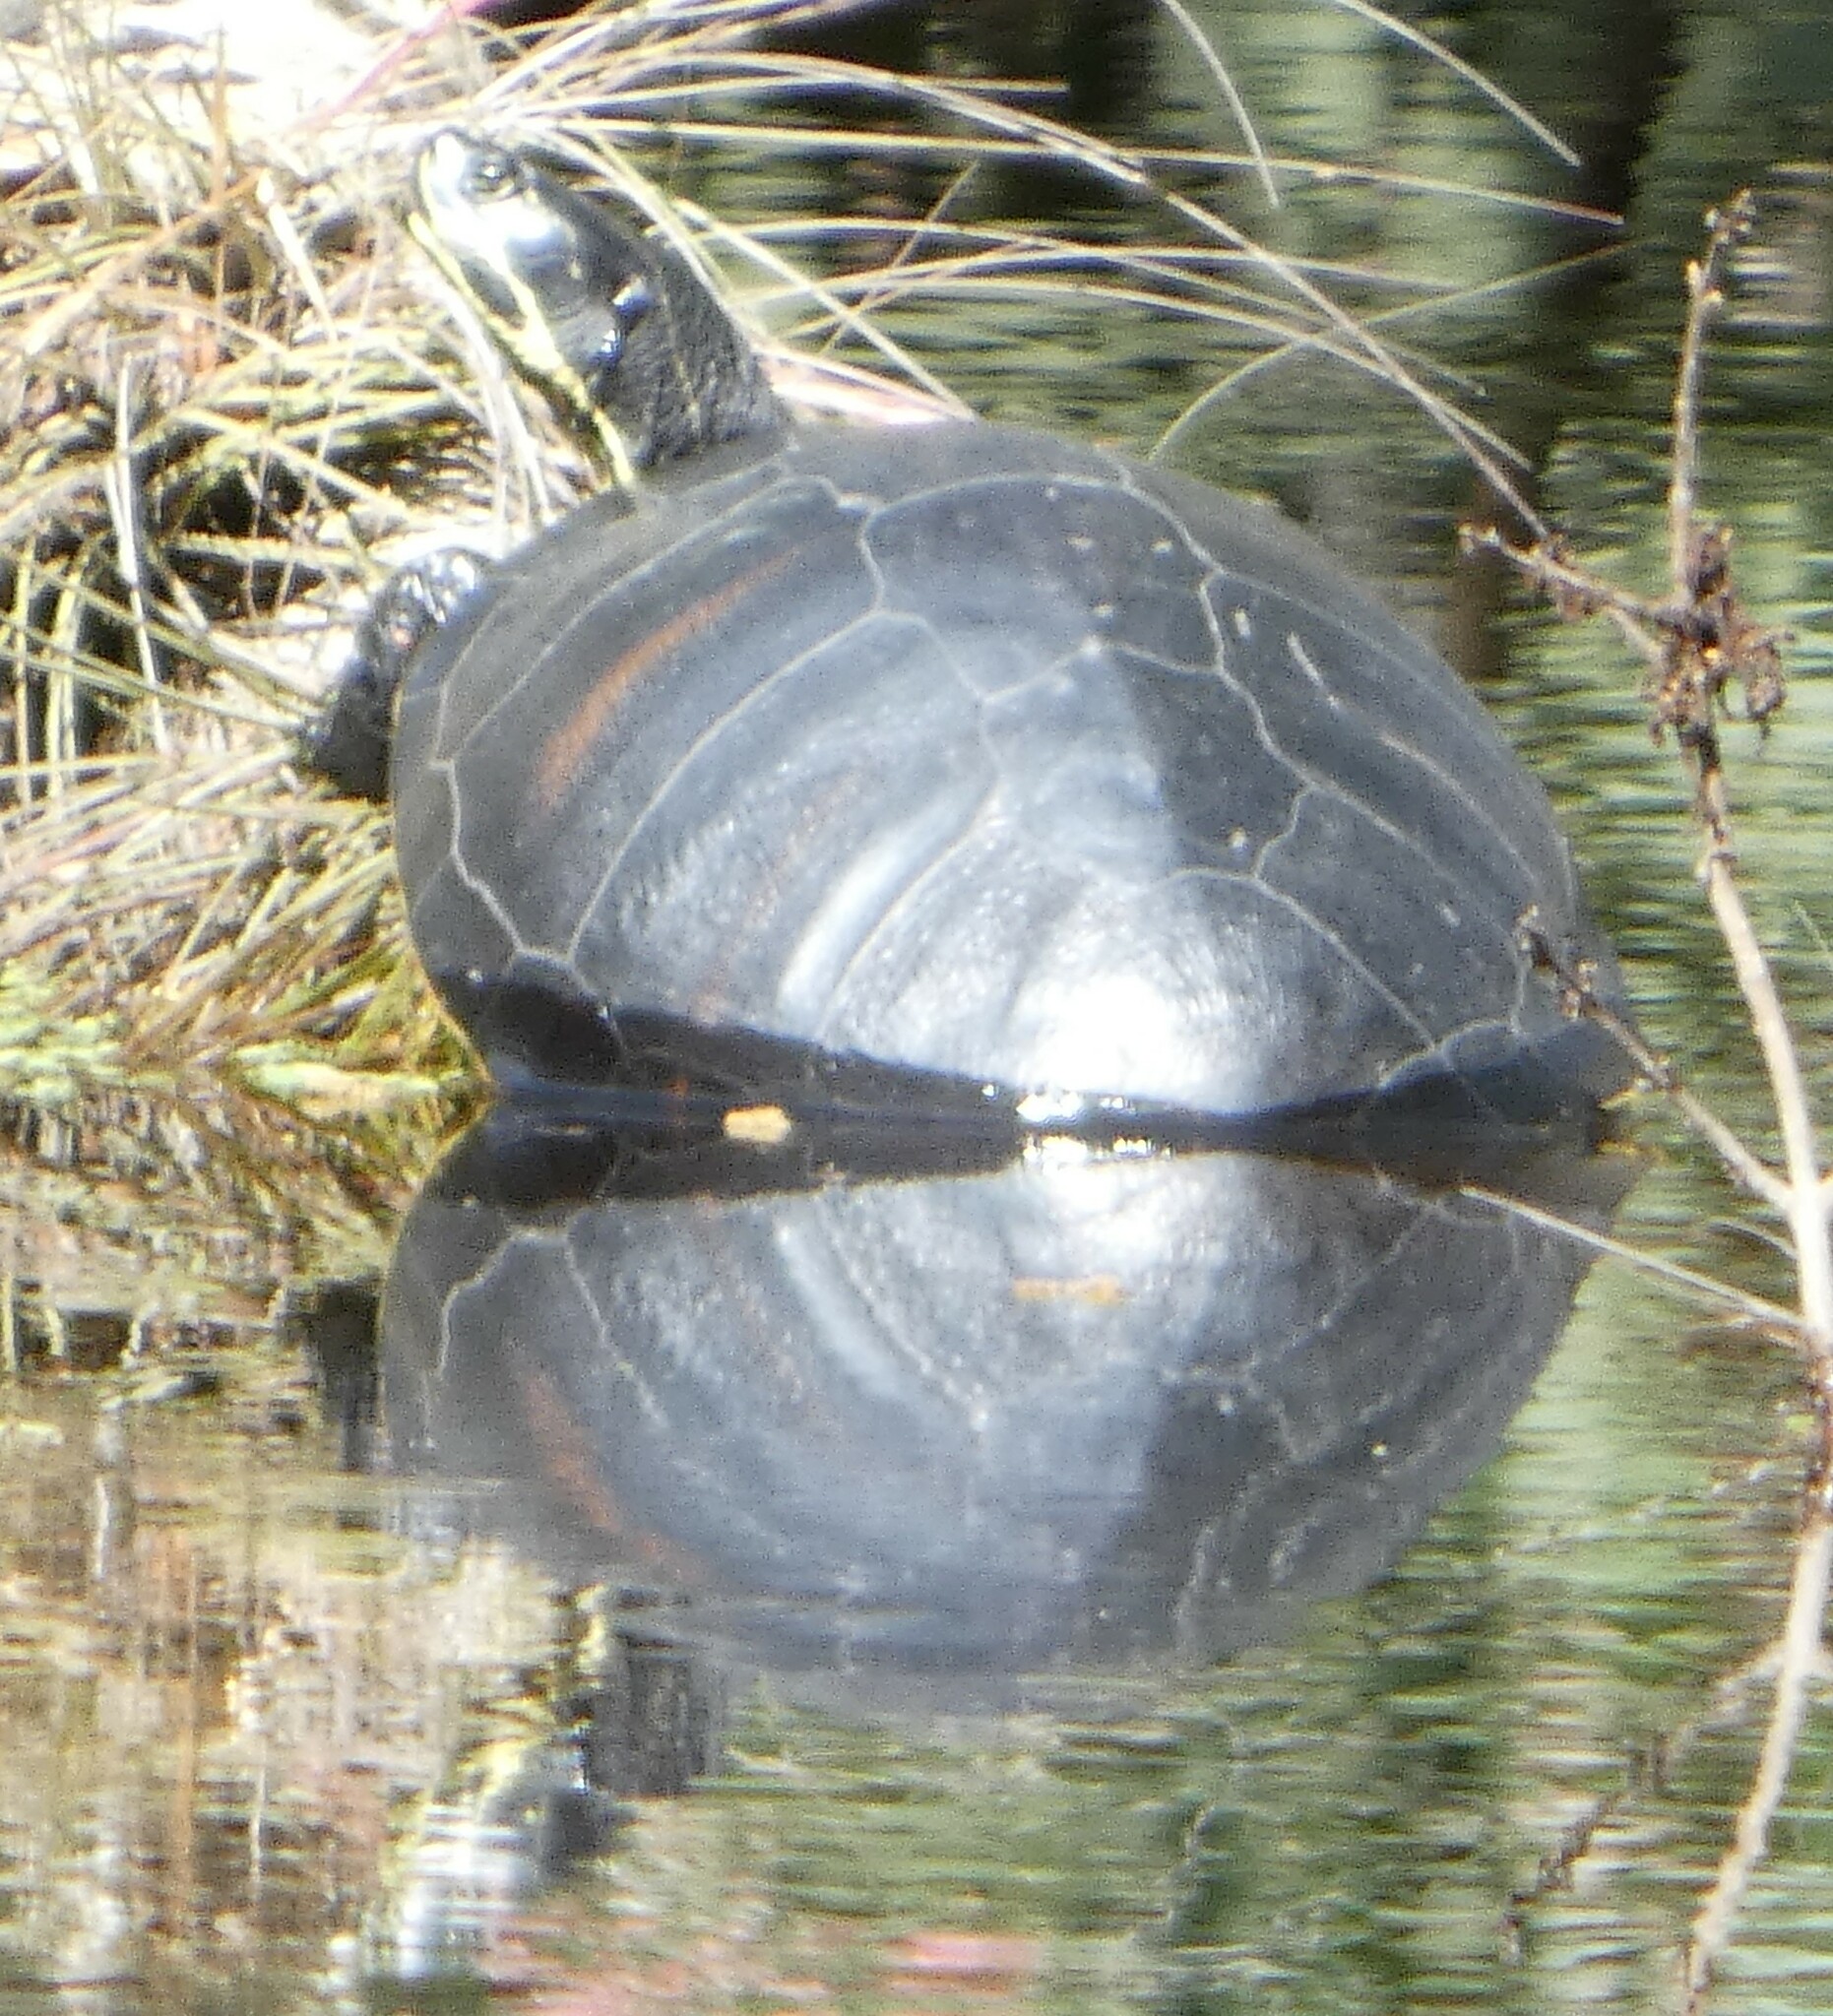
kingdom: Animalia
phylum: Chordata
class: Testudines
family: Emydidae
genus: Pseudemys
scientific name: Pseudemys nelsoni
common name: Florida red-bellied turtle
